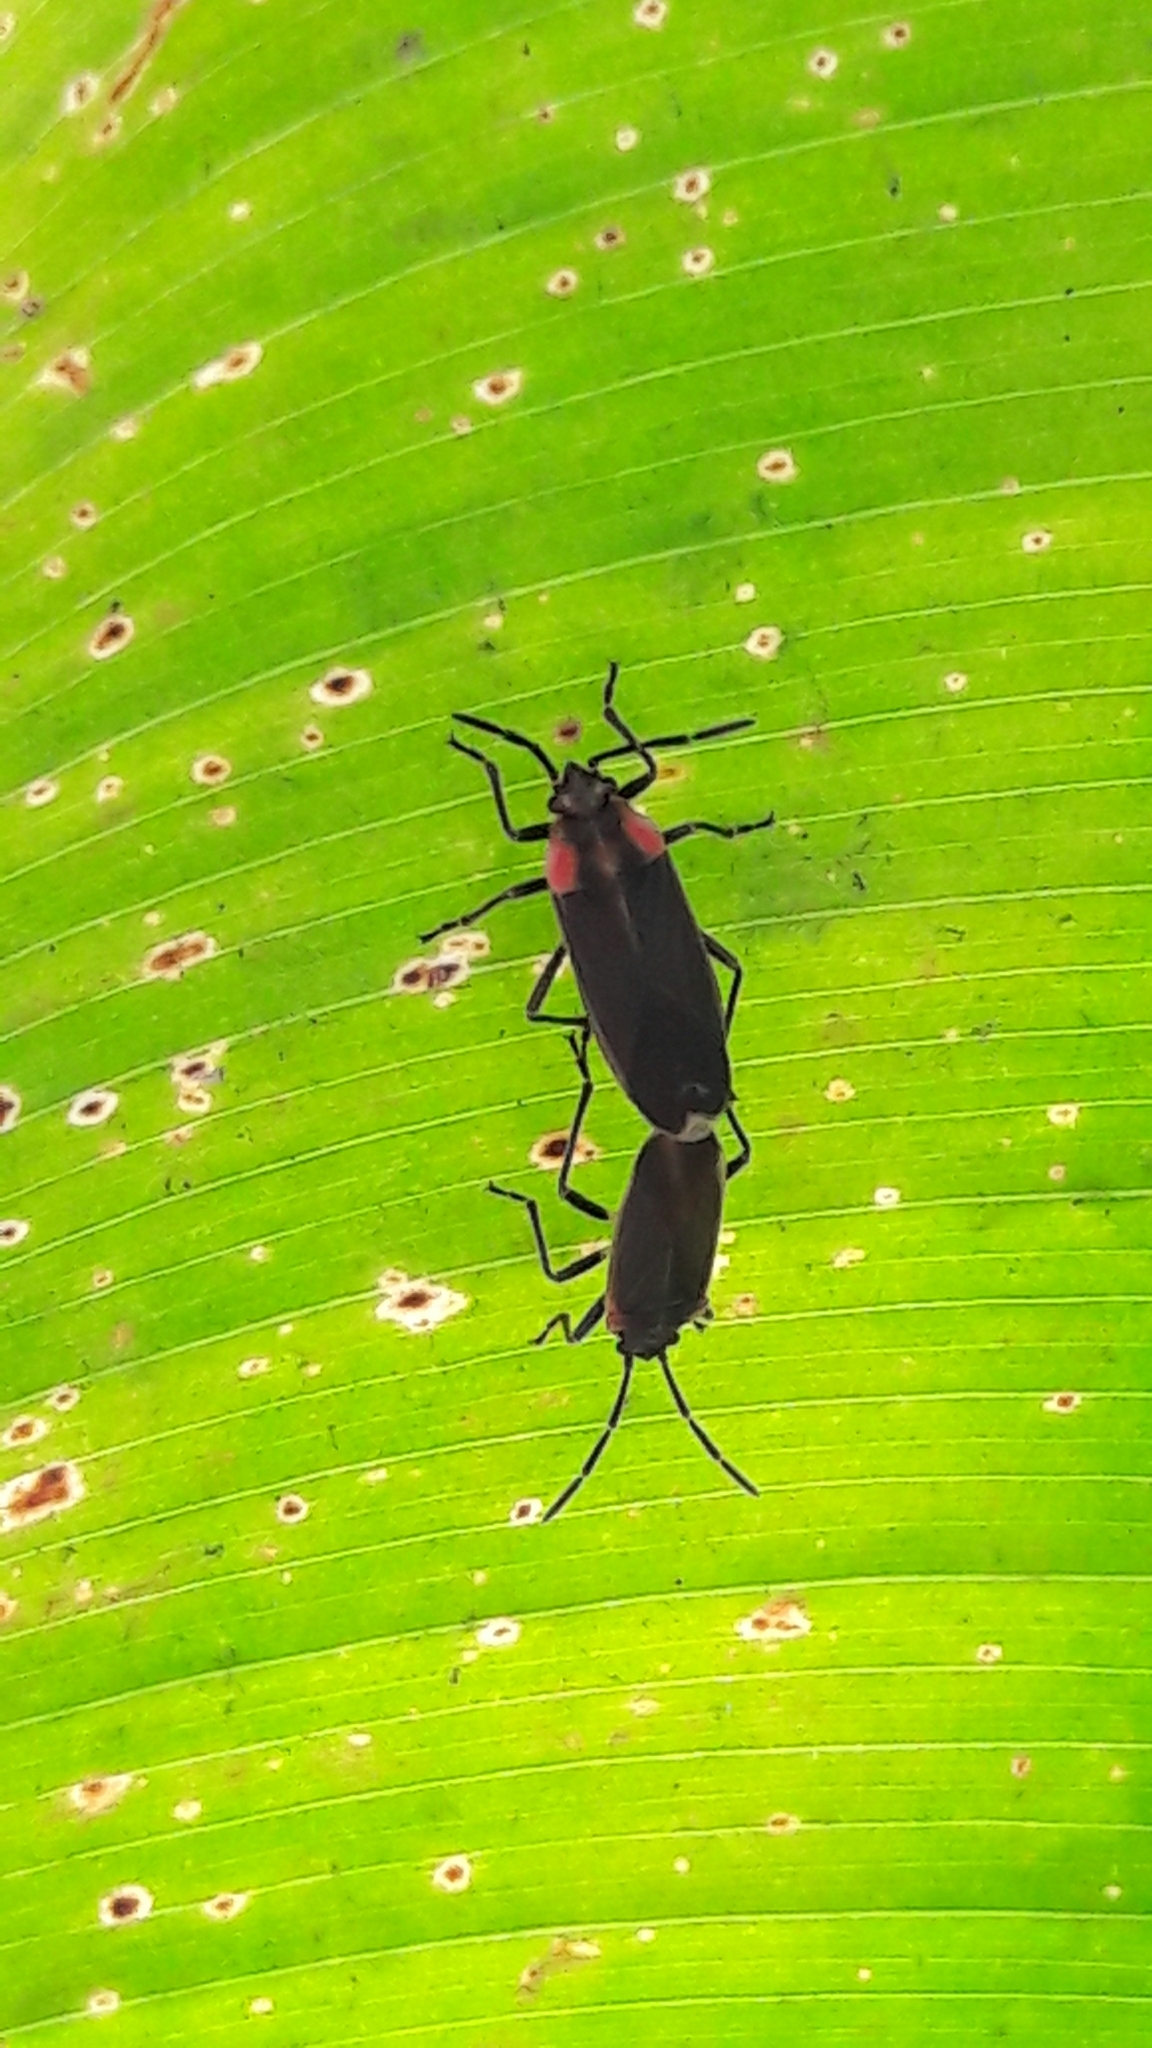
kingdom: Animalia
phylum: Arthropoda
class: Insecta
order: Hemiptera
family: Lygaeidae
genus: Acroleucus
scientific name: Acroleucus coxalis
